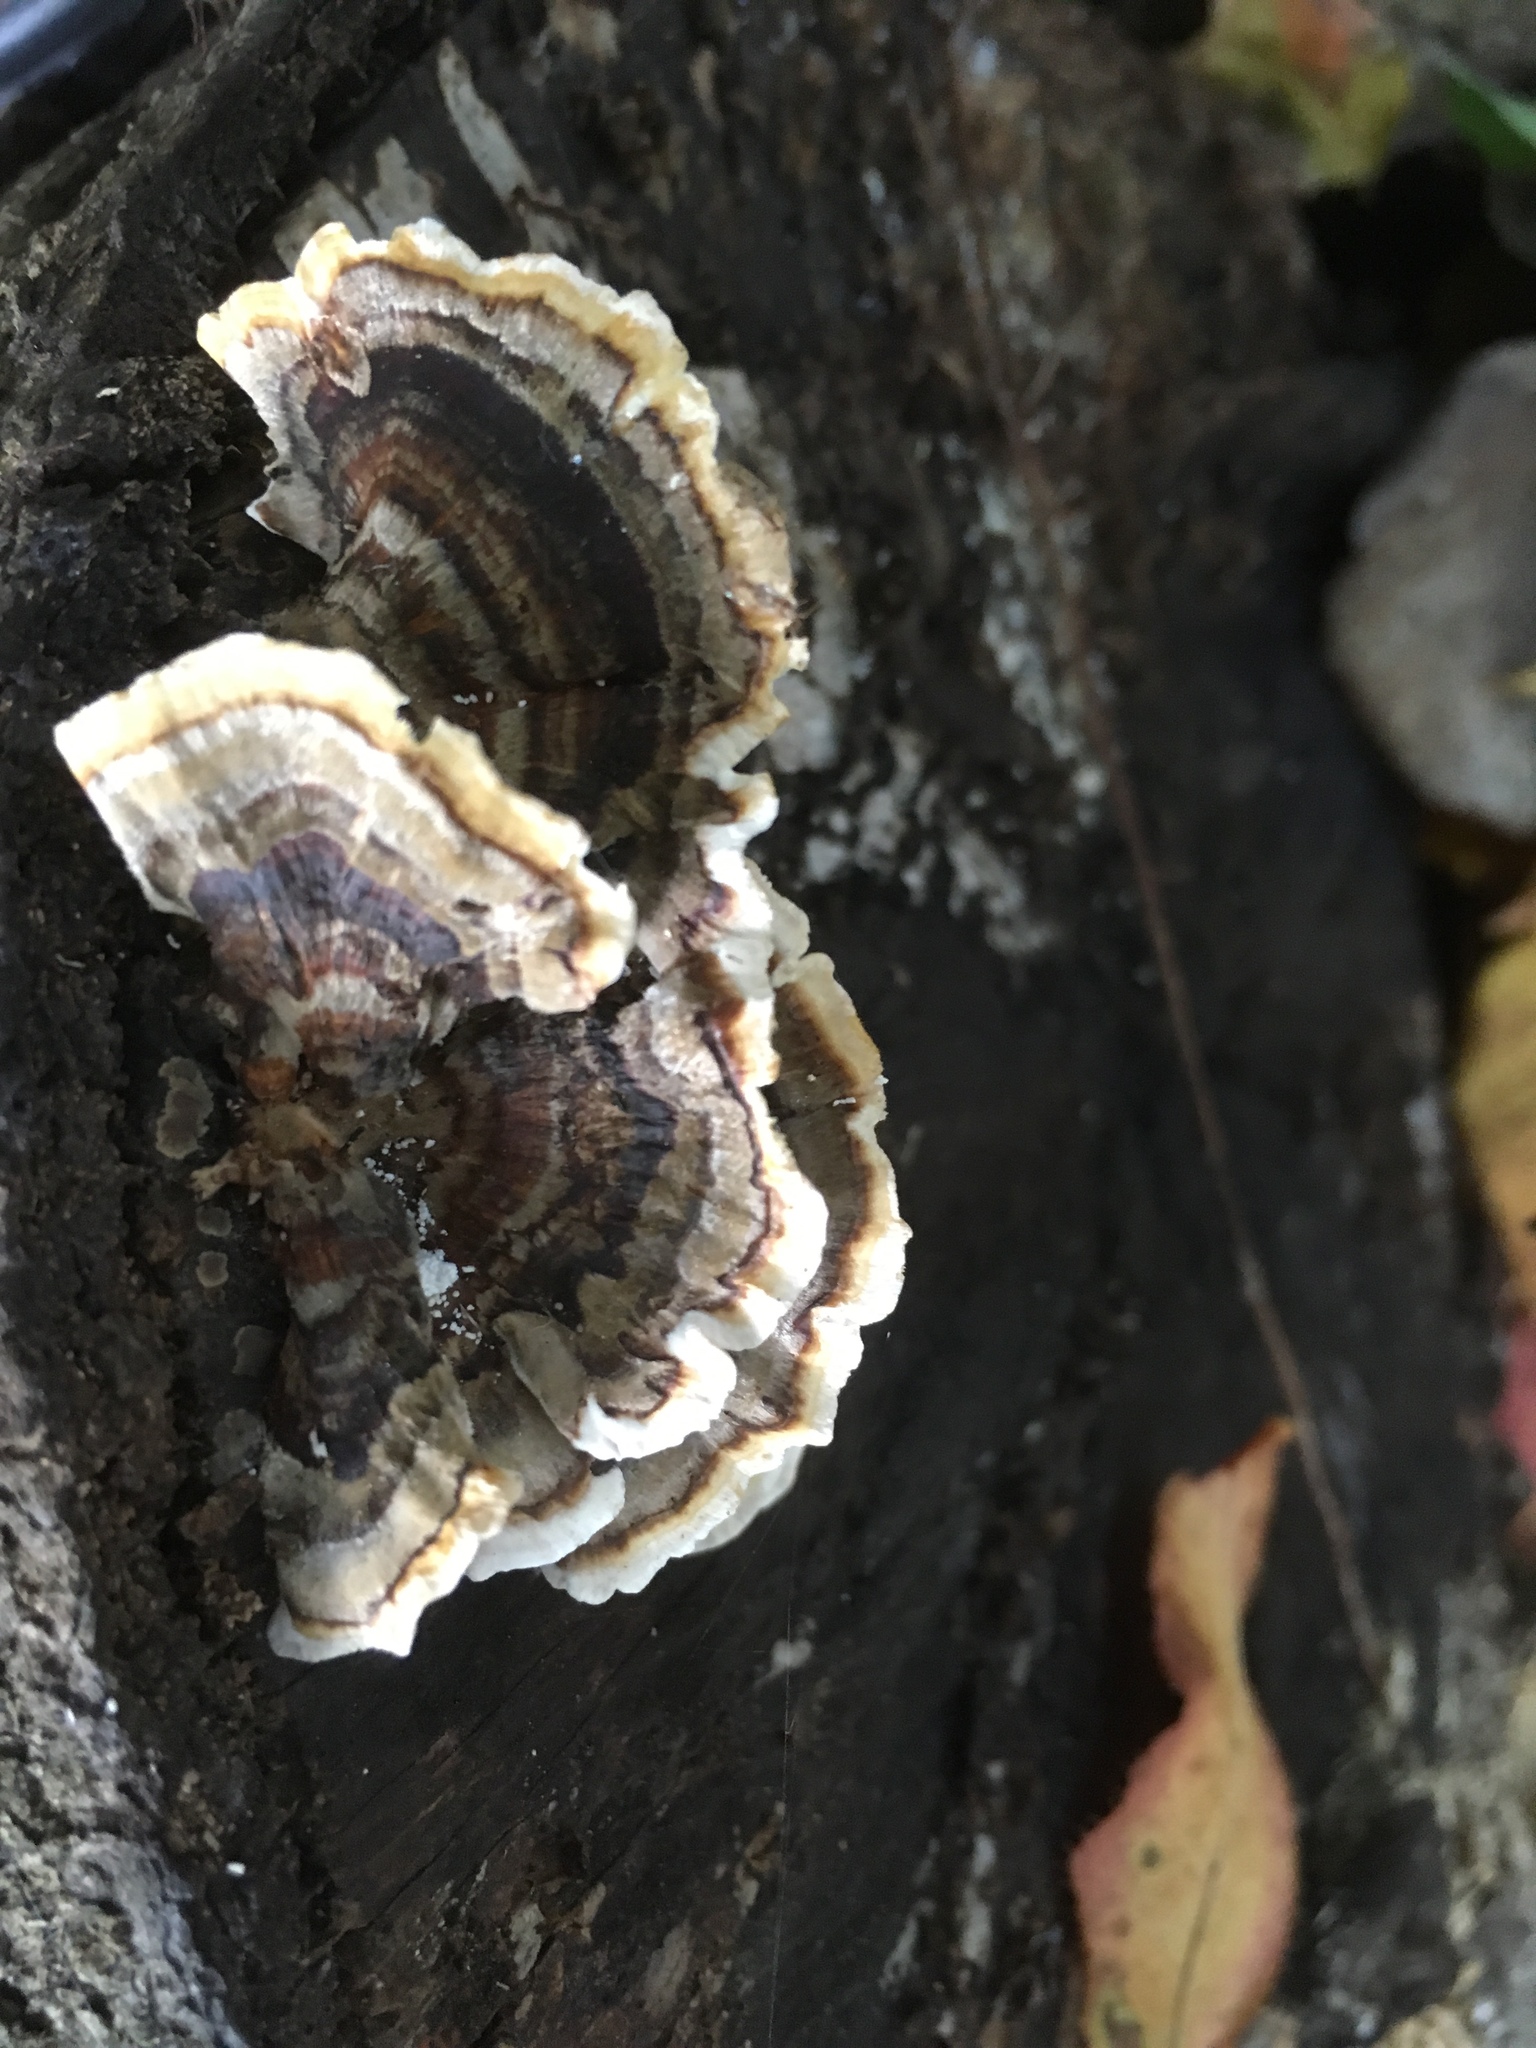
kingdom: Fungi
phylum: Basidiomycota
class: Agaricomycetes
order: Polyporales
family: Polyporaceae
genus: Trametes
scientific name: Trametes versicolor
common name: Turkeytail
